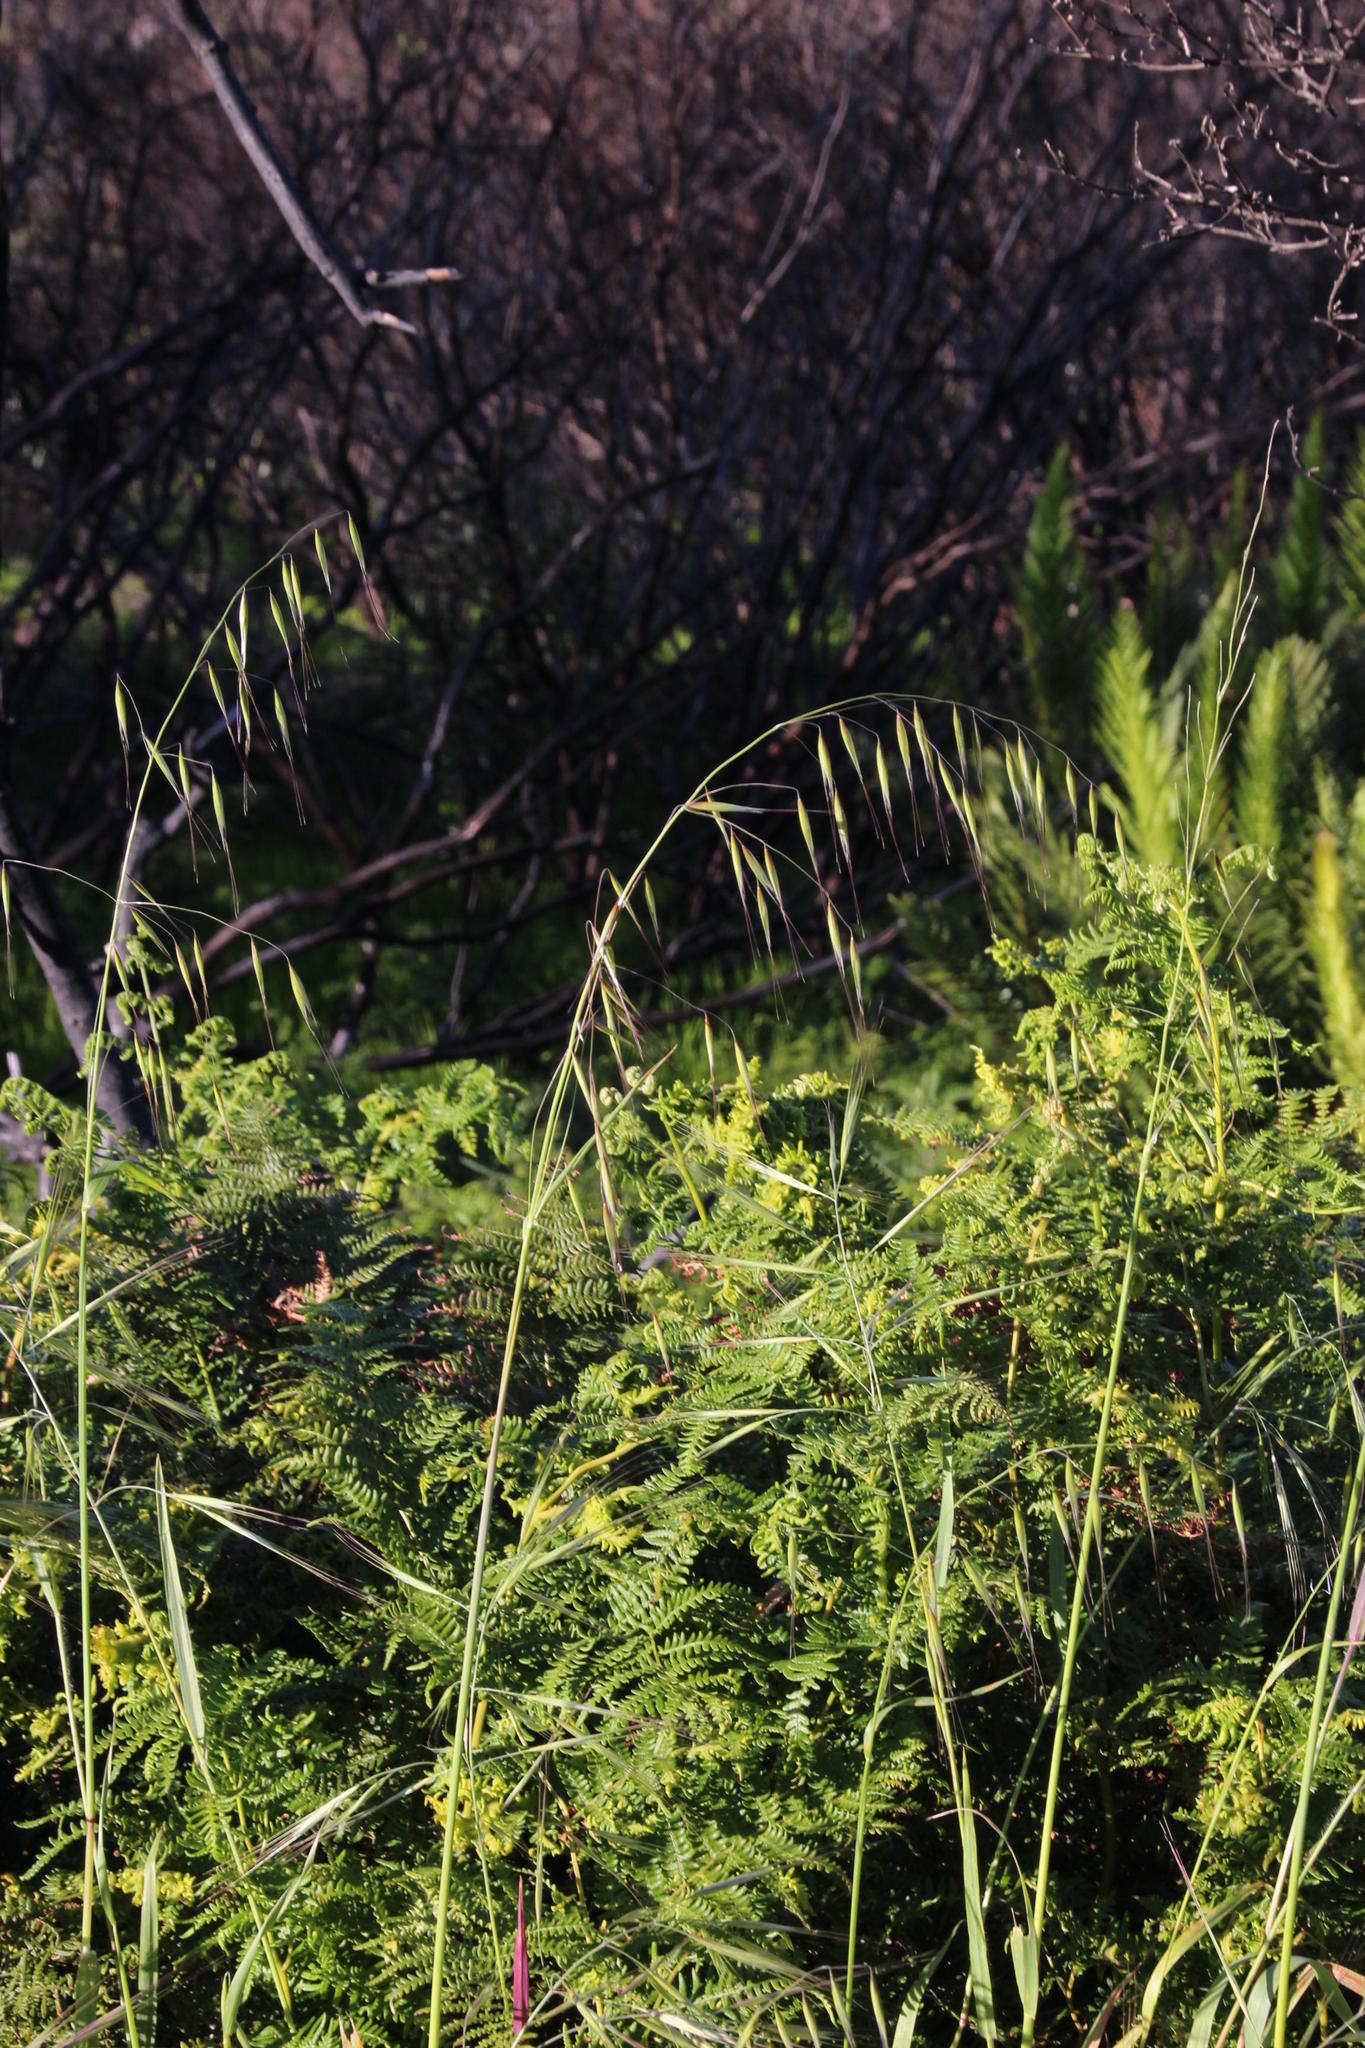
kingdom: Plantae
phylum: Tracheophyta
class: Liliopsida
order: Poales
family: Poaceae
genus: Avena
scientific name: Avena fatua
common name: Wild oat
